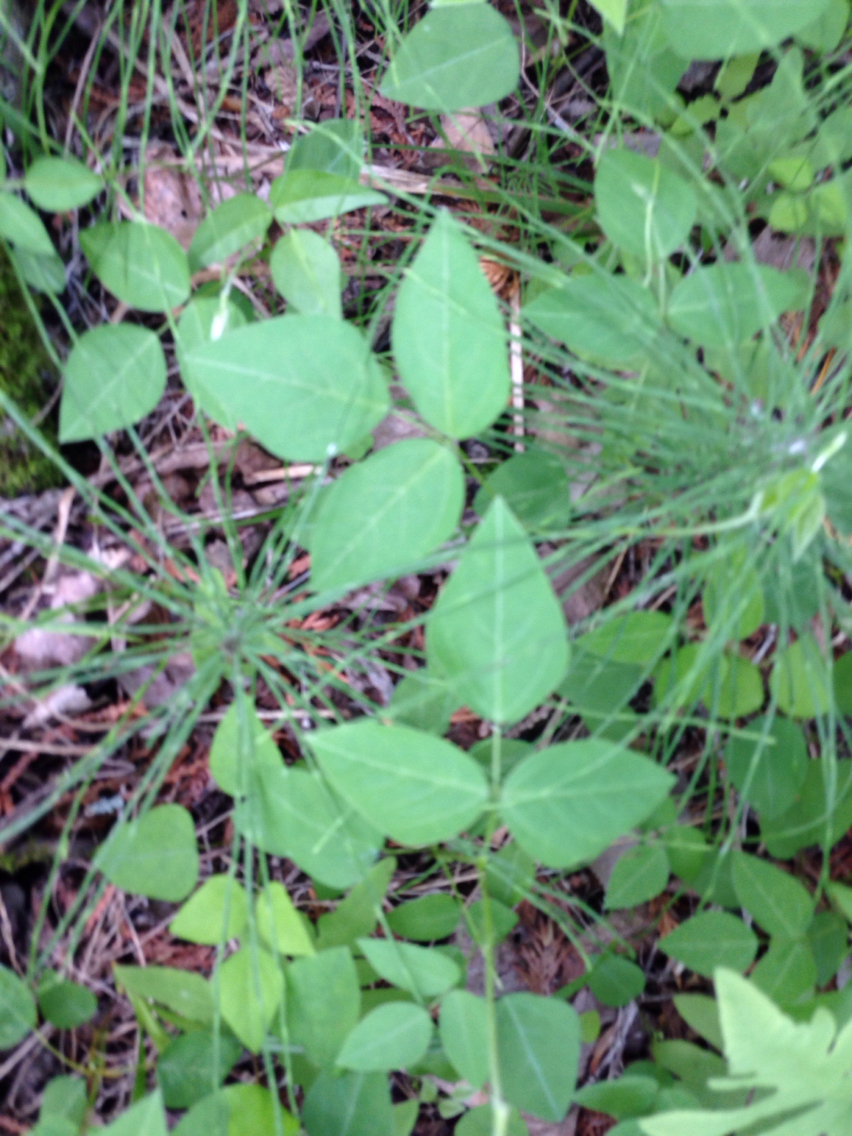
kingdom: Plantae
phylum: Tracheophyta
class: Magnoliopsida
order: Fabales
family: Fabaceae
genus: Amphicarpaea
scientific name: Amphicarpaea bracteata
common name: American hog peanut
